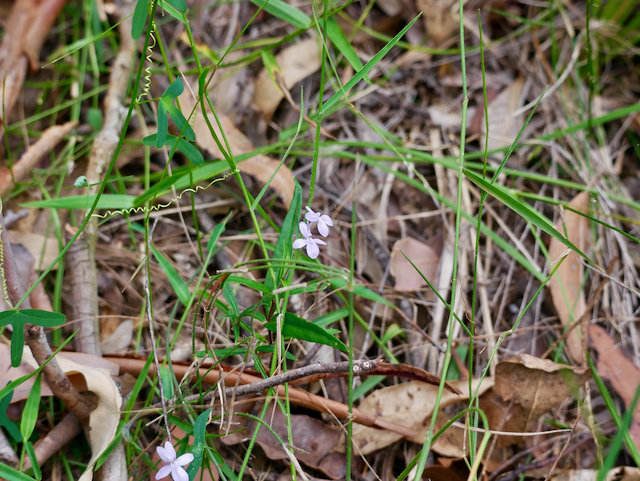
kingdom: Plantae
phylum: Tracheophyta
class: Magnoliopsida
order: Lamiales
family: Acanthaceae
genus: Pseuderanthemum
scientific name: Pseuderanthemum variabile
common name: Night and afternoon
